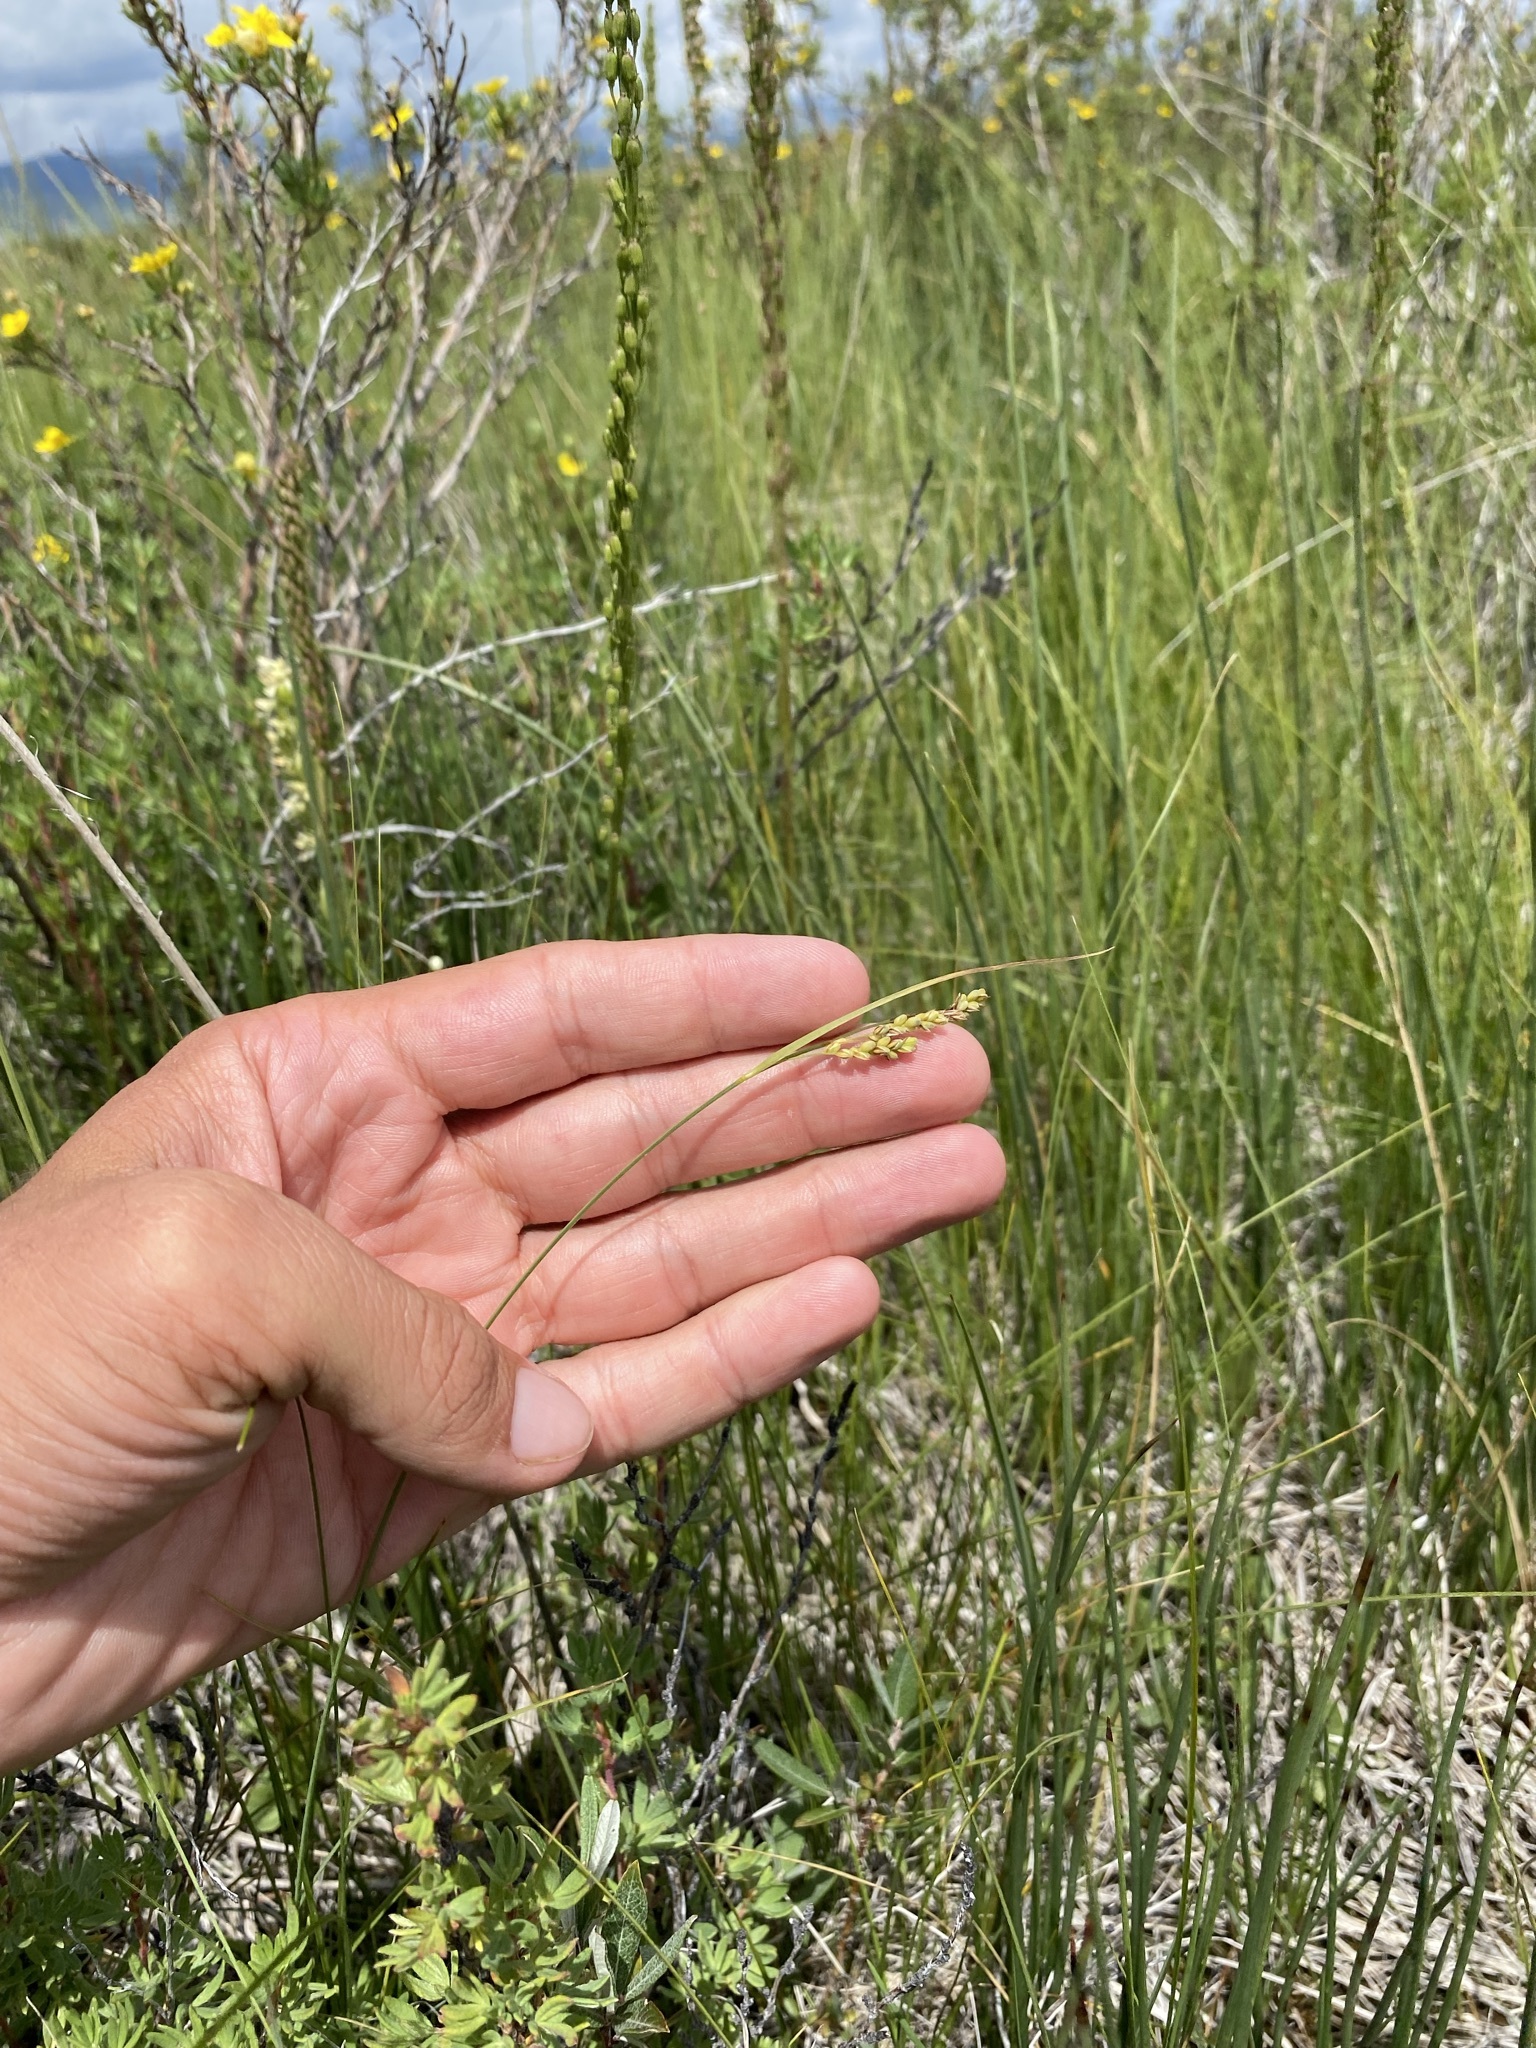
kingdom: Plantae
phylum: Tracheophyta
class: Liliopsida
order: Poales
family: Cyperaceae
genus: Carex
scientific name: Carex hassei
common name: Hasse's sedge
